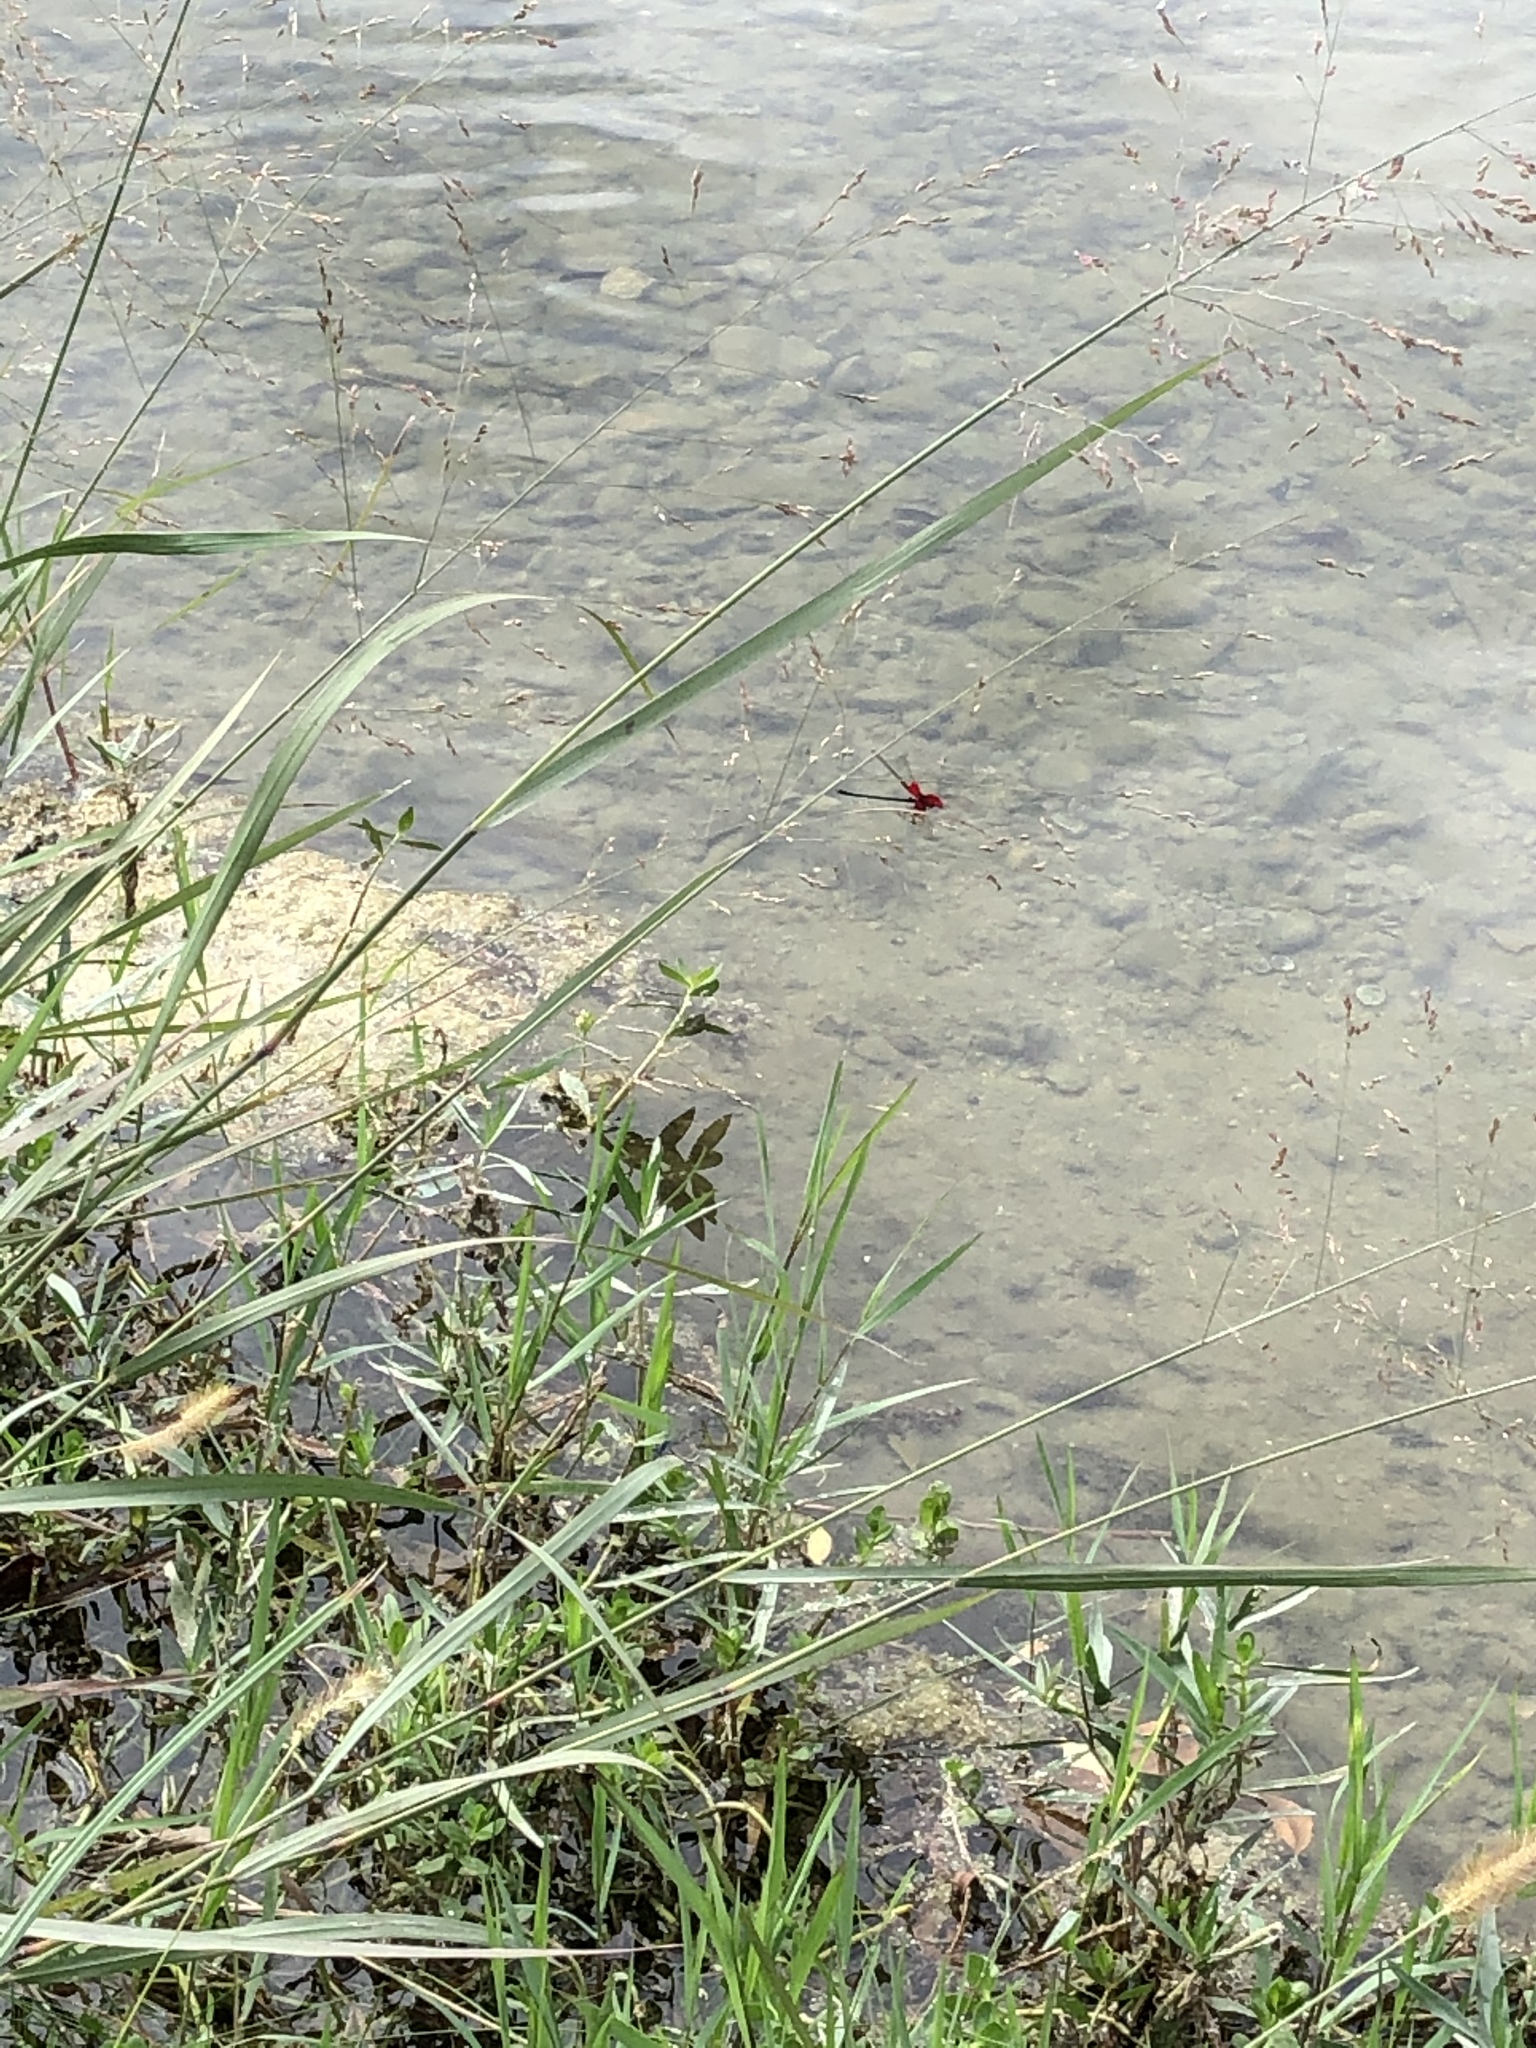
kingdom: Animalia
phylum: Arthropoda
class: Insecta
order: Odonata
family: Calopterygidae
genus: Hetaerina
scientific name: Hetaerina americana
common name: American rubyspot
